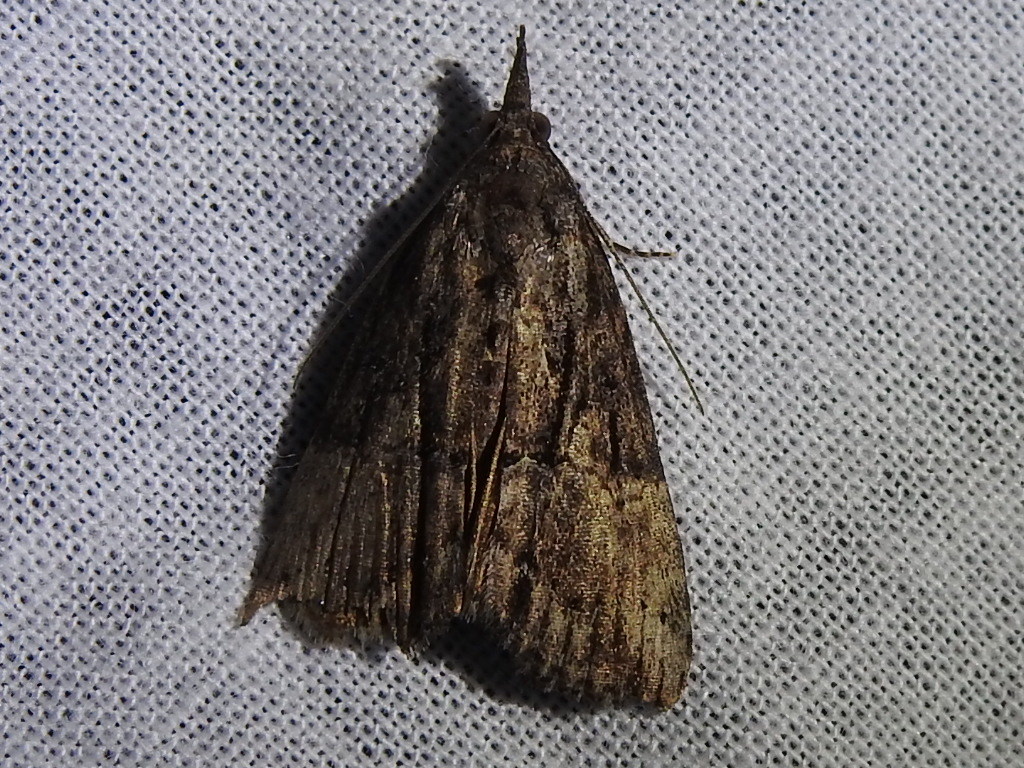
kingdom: Animalia
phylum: Arthropoda
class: Insecta
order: Lepidoptera
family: Erebidae
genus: Hypena
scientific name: Hypena scabra
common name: Green cloverworm
